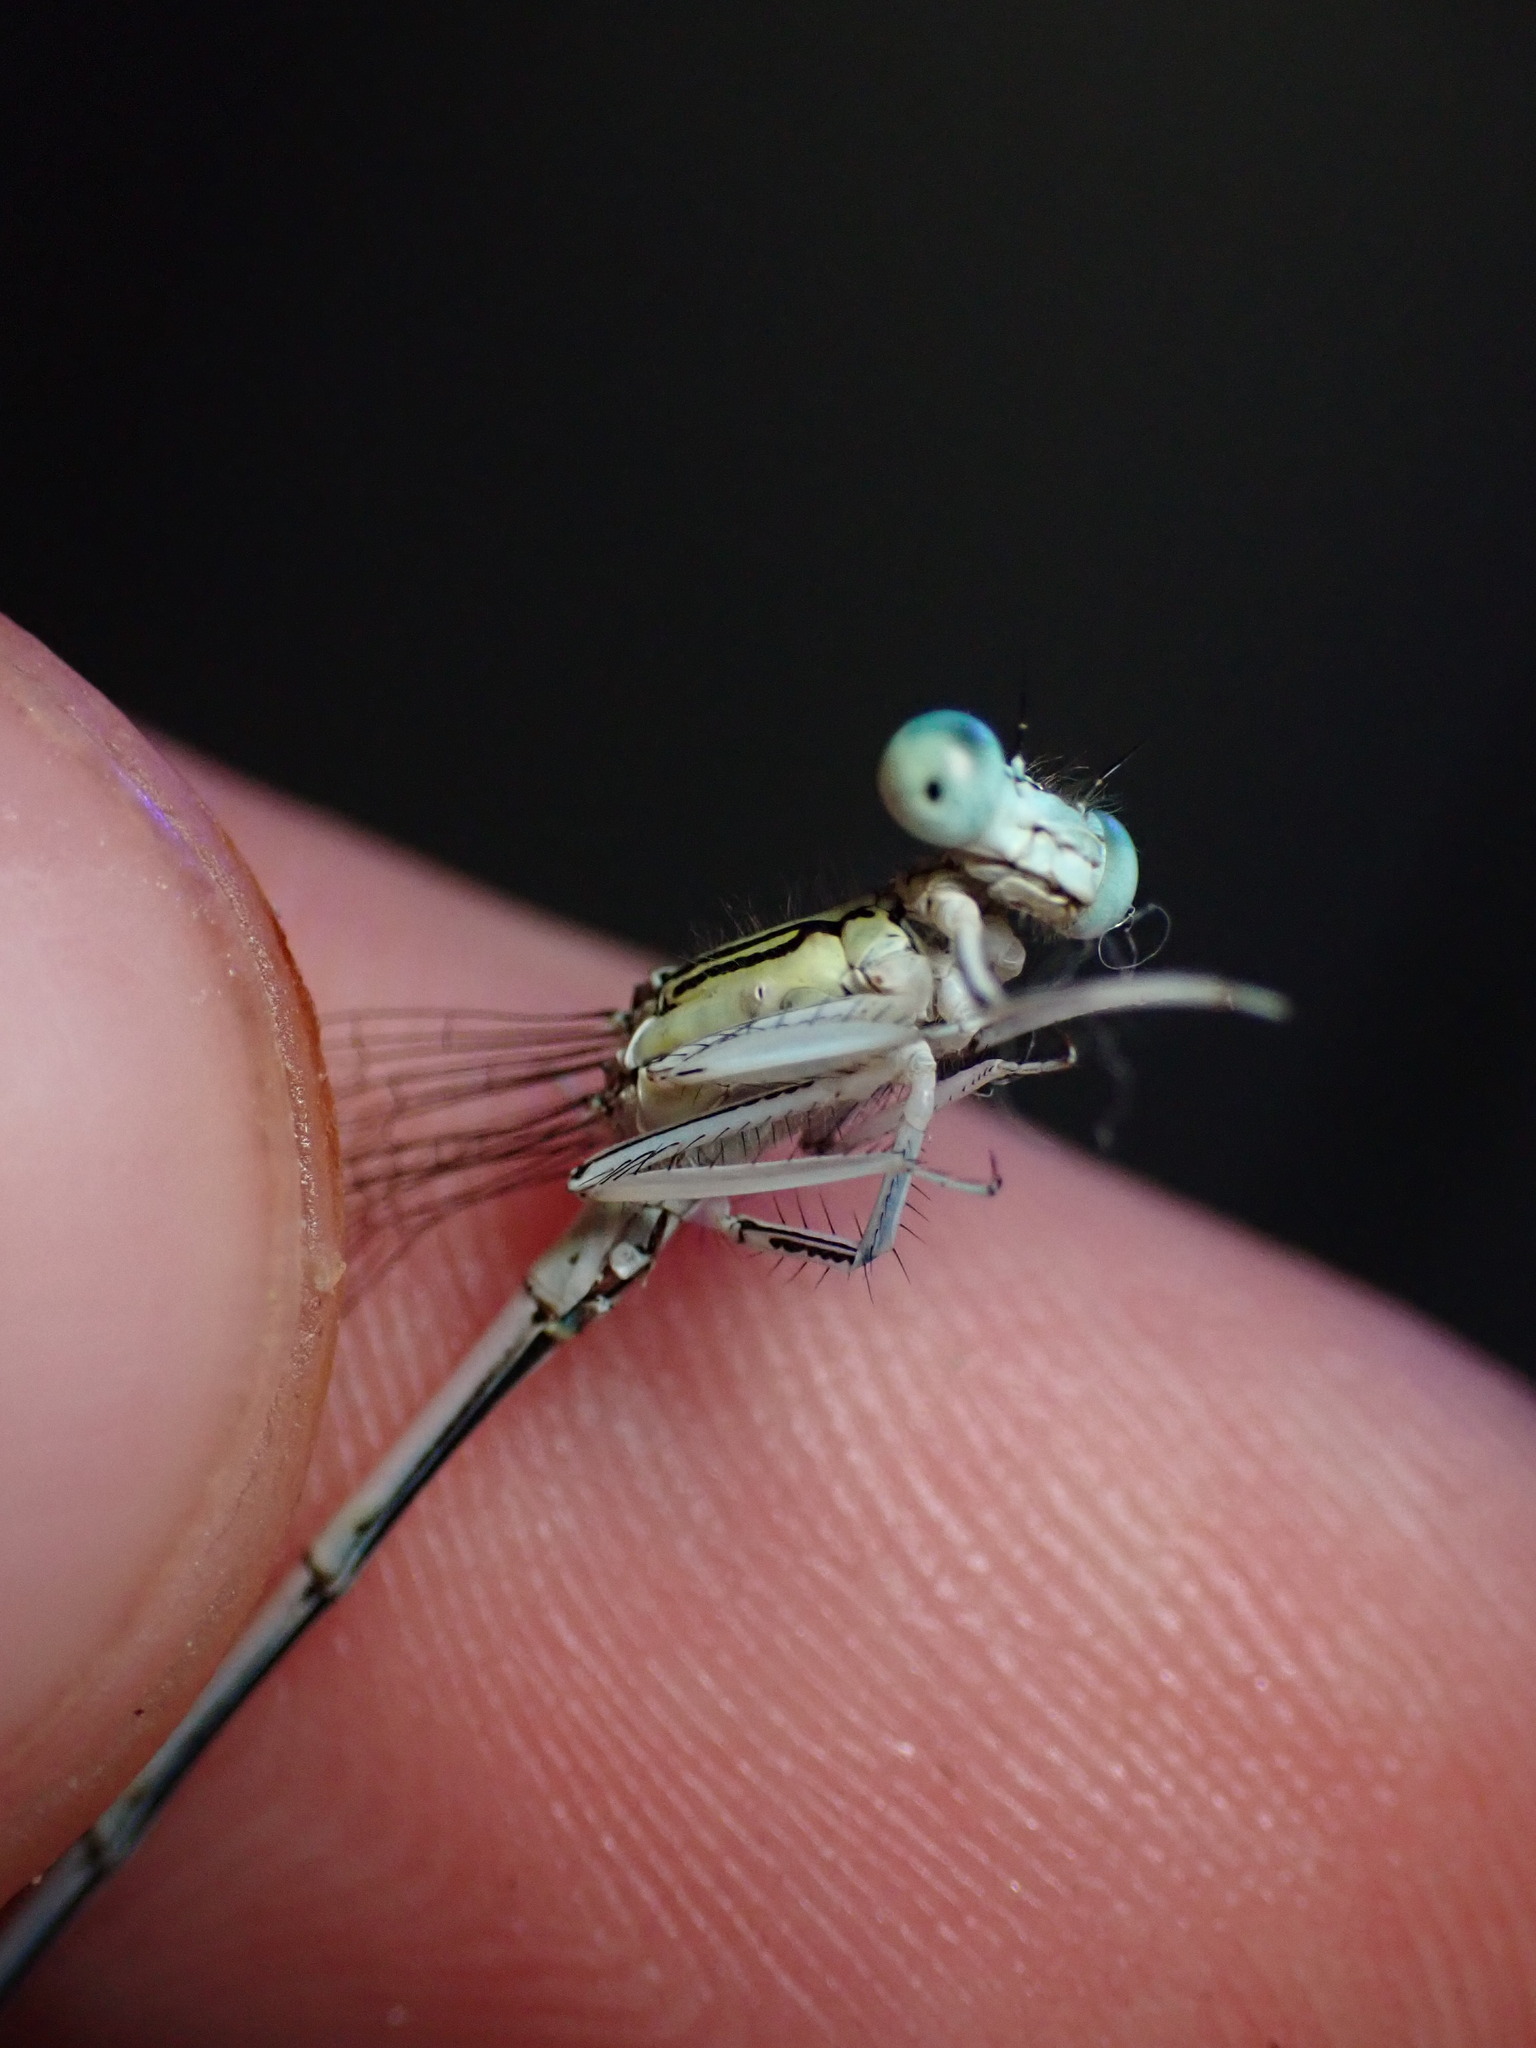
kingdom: Animalia
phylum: Arthropoda
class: Insecta
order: Odonata
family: Platycnemididae
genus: Platycnemis
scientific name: Platycnemis latipes
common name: White featherleg
